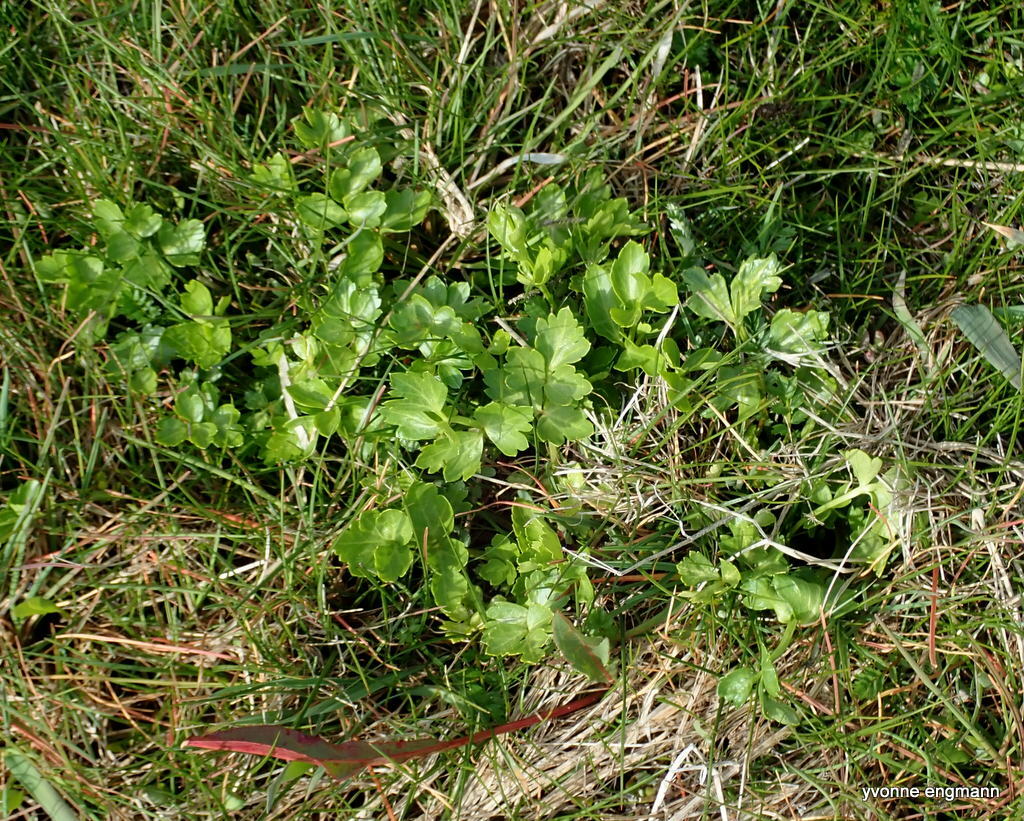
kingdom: Plantae
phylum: Tracheophyta
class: Magnoliopsida
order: Apiales
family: Apiaceae
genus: Apium
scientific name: Apium graveolens
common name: Wild celery
